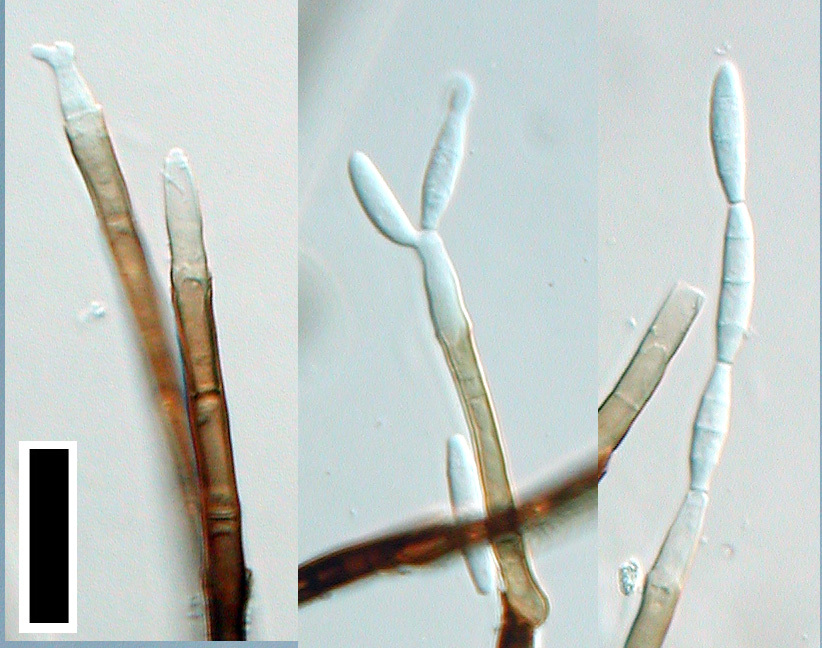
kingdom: Fungi
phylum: Ascomycota
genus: Pleurotheciopsis
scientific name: Pleurotheciopsis bramleyi
